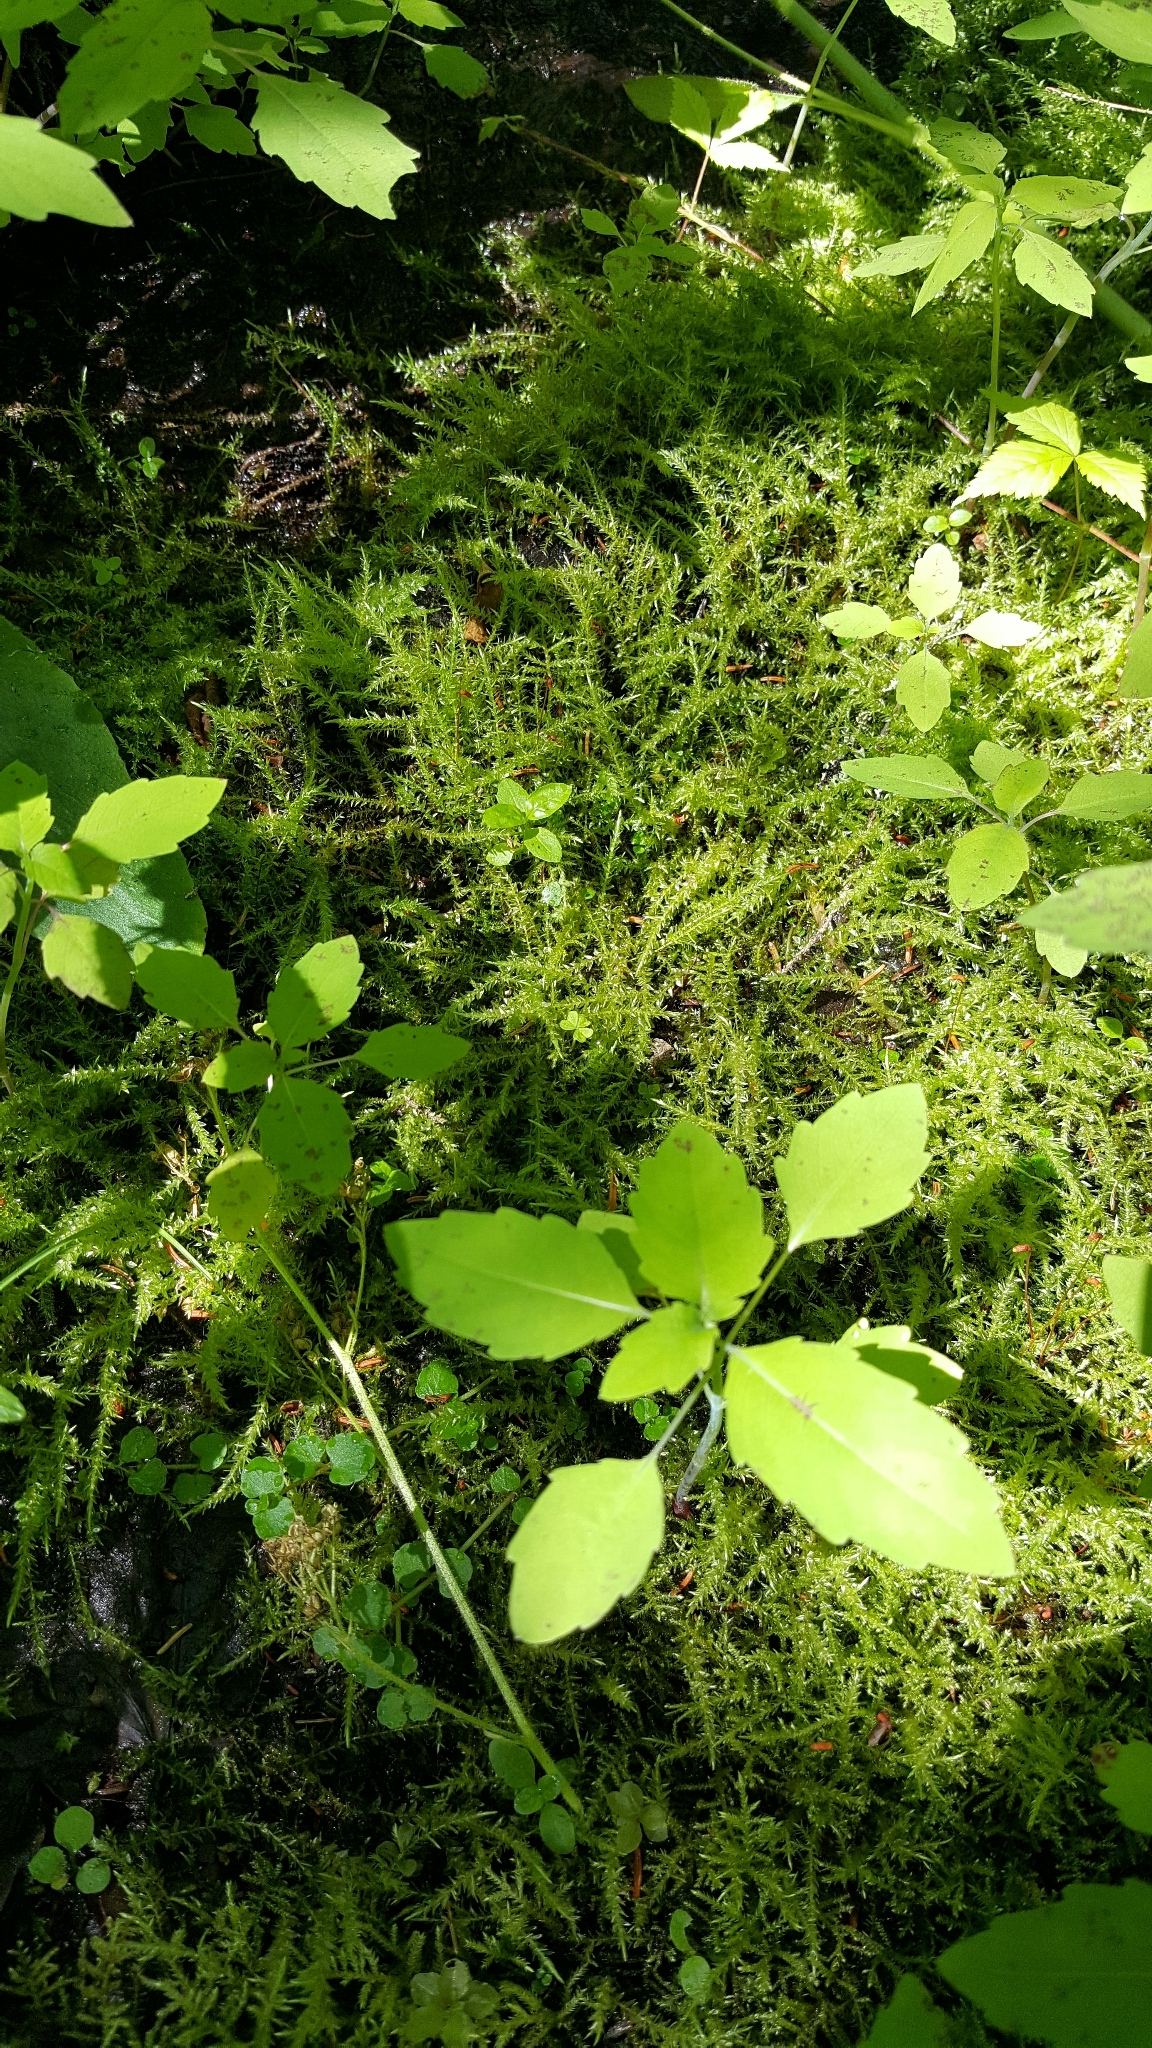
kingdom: Plantae
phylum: Tracheophyta
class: Magnoliopsida
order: Ericales
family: Balsaminaceae
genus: Impatiens
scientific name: Impatiens capensis
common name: Orange balsam
